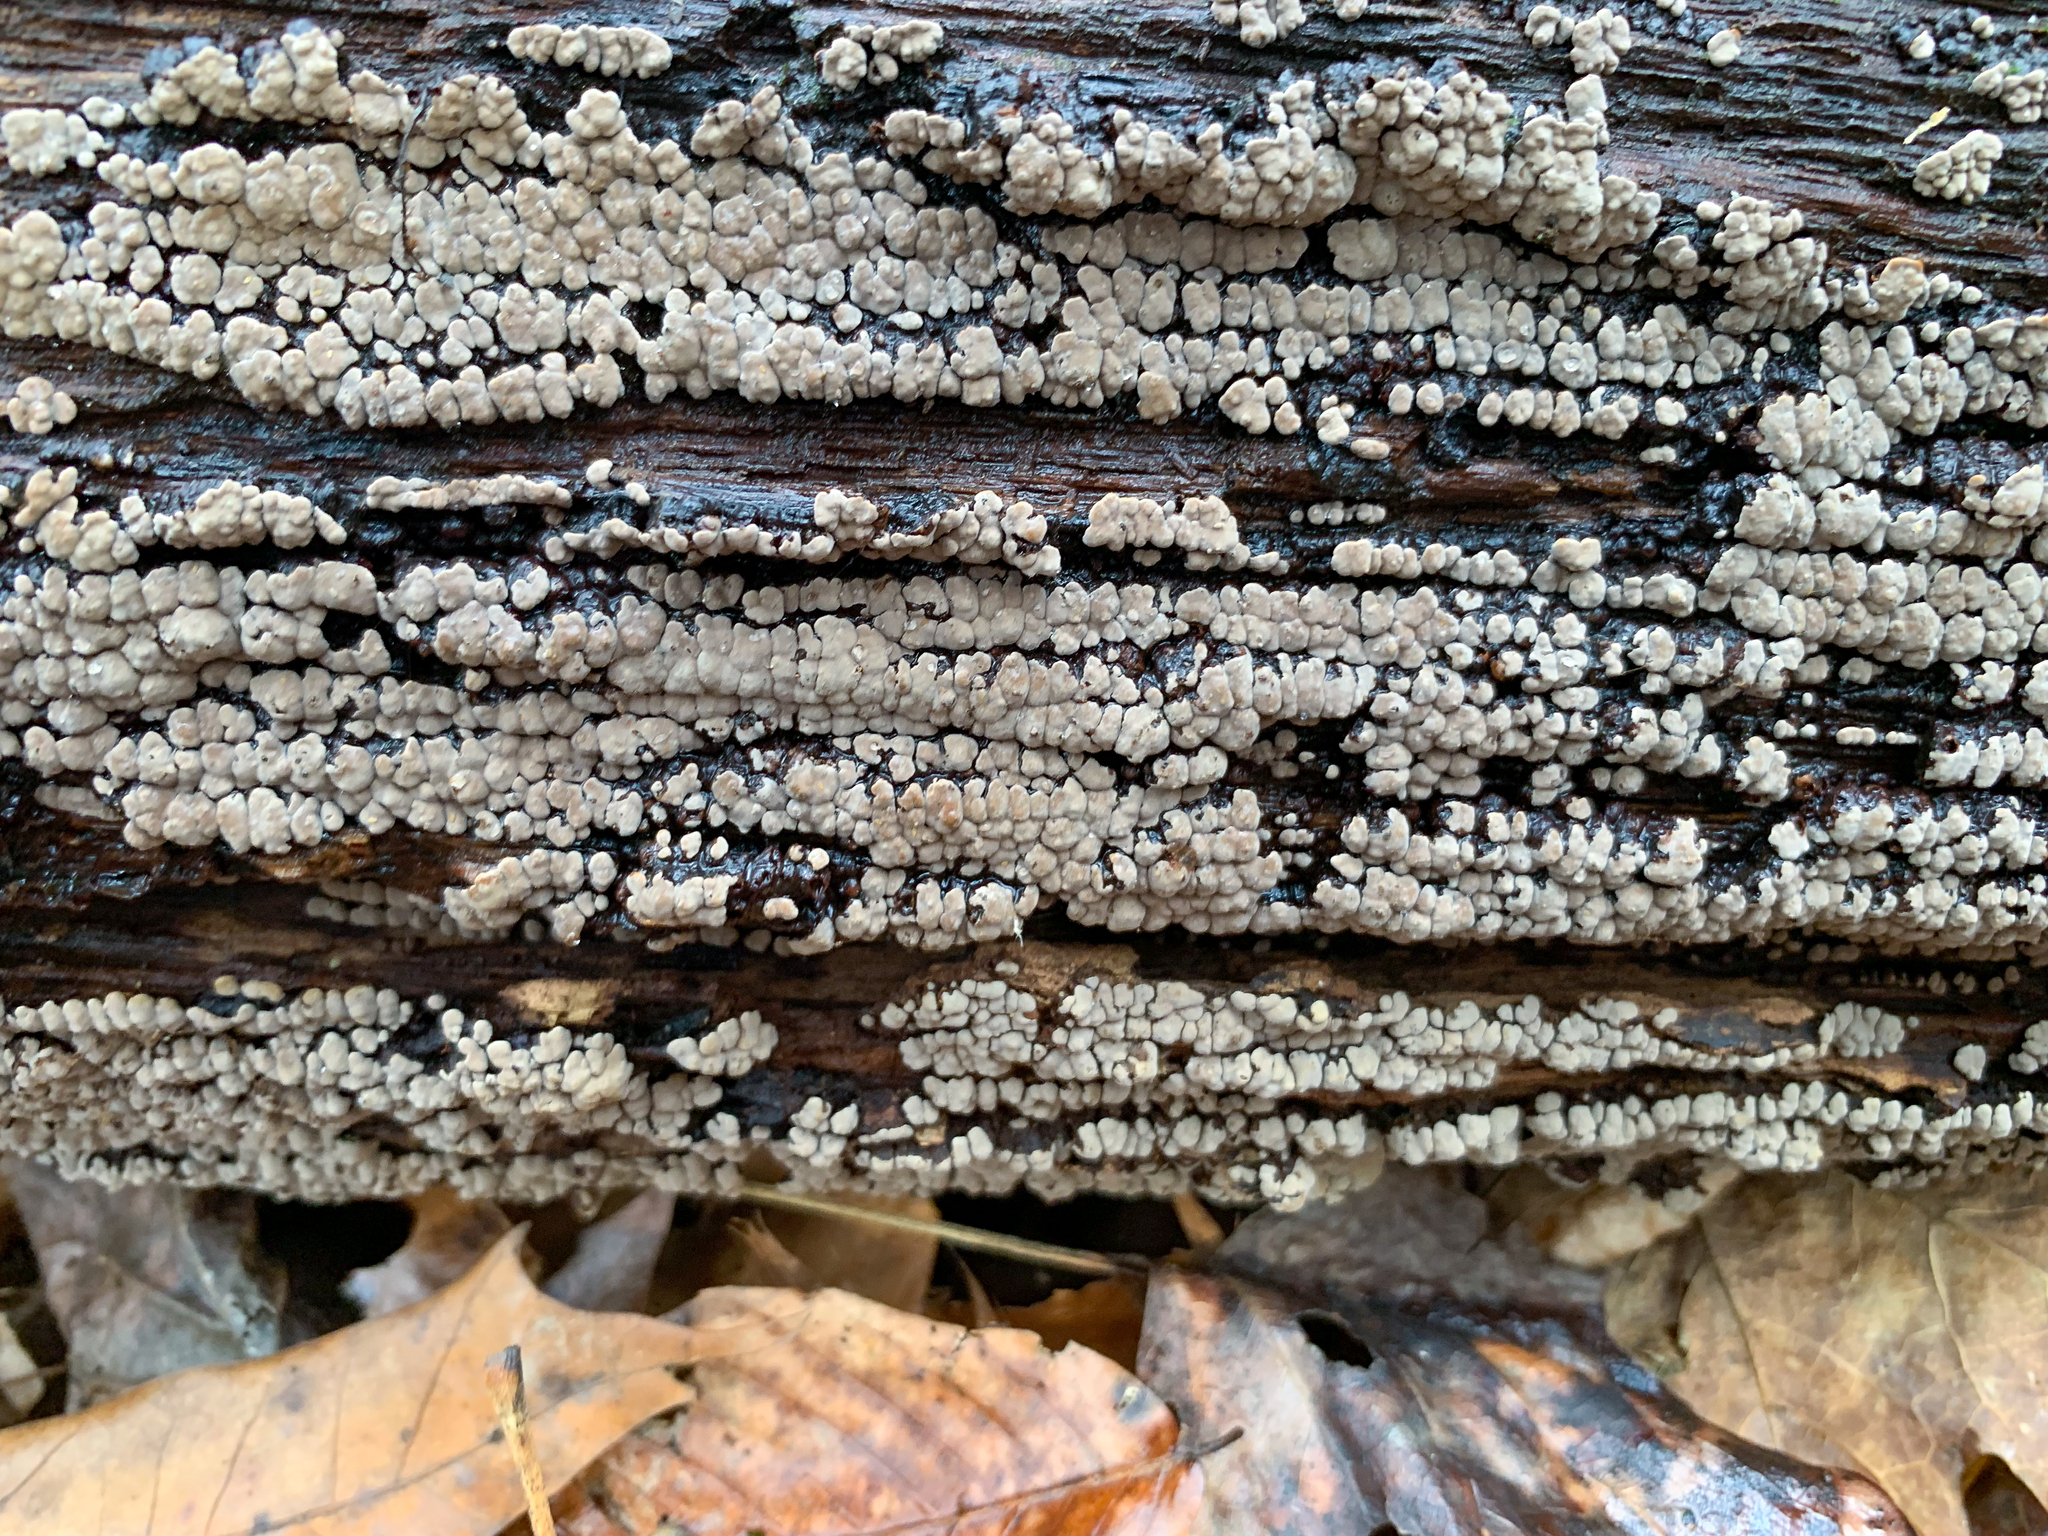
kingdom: Fungi
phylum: Basidiomycota
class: Agaricomycetes
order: Russulales
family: Stereaceae
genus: Xylobolus
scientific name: Xylobolus frustulatus
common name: Ceramic parchment
